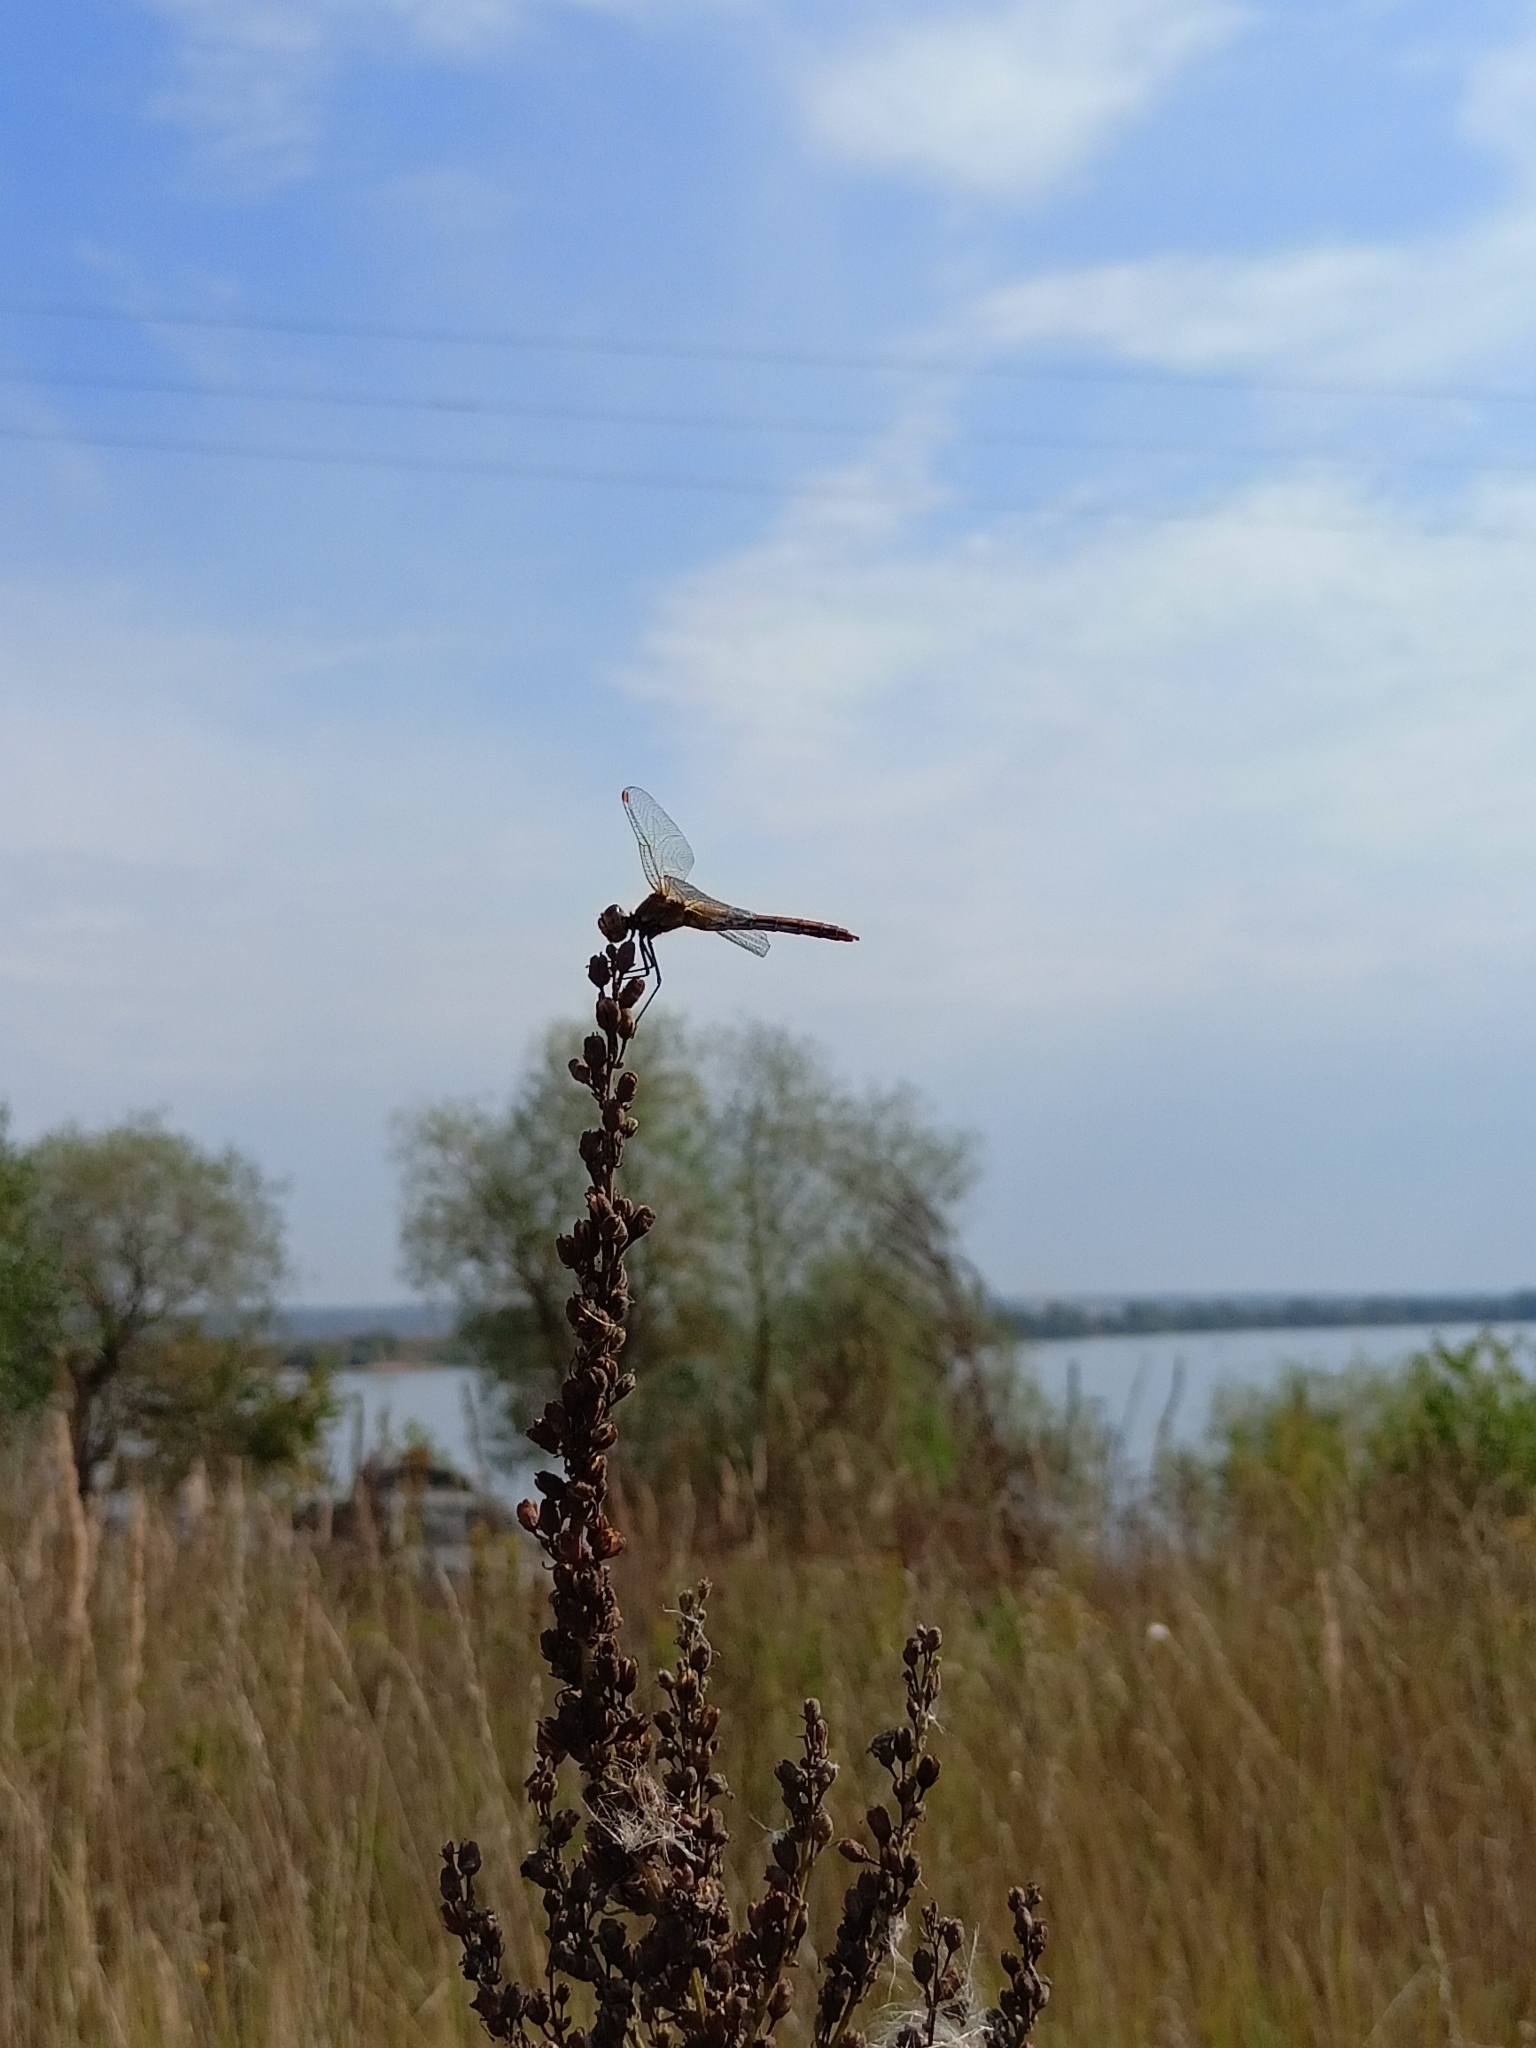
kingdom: Animalia
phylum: Arthropoda
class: Insecta
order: Odonata
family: Libellulidae
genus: Sympetrum
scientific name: Sympetrum flaveolum
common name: Yellow-winged darter
